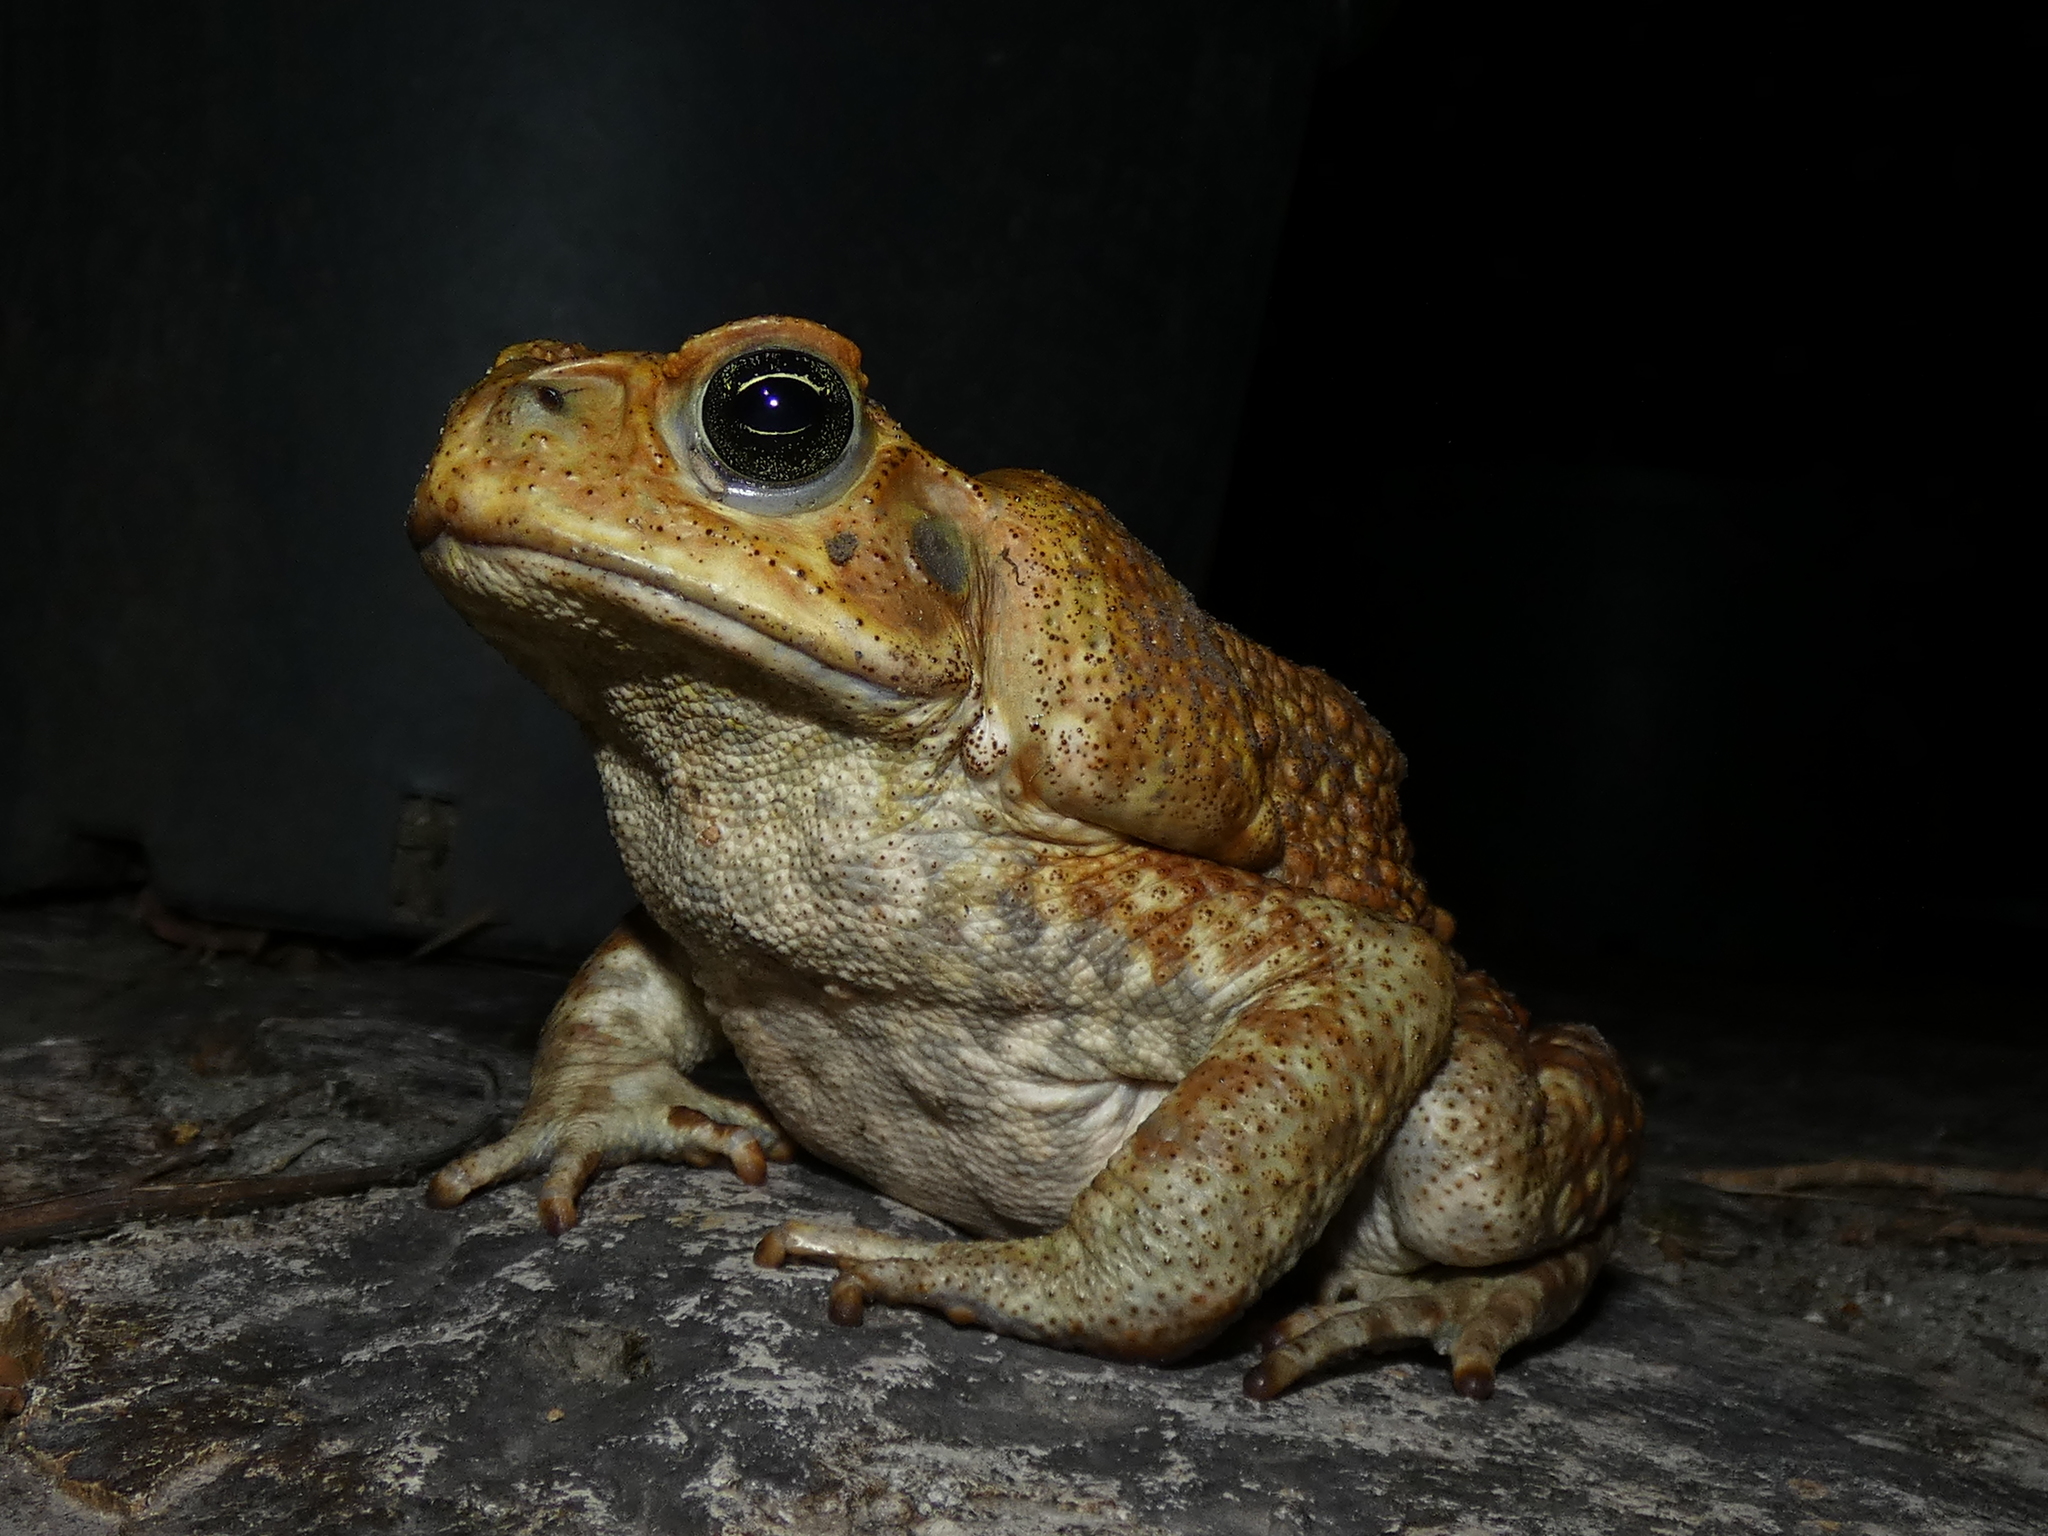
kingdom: Animalia
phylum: Chordata
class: Amphibia
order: Anura
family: Bufonidae
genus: Rhinella
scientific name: Rhinella horribilis
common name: Mesoamerican cane toad
